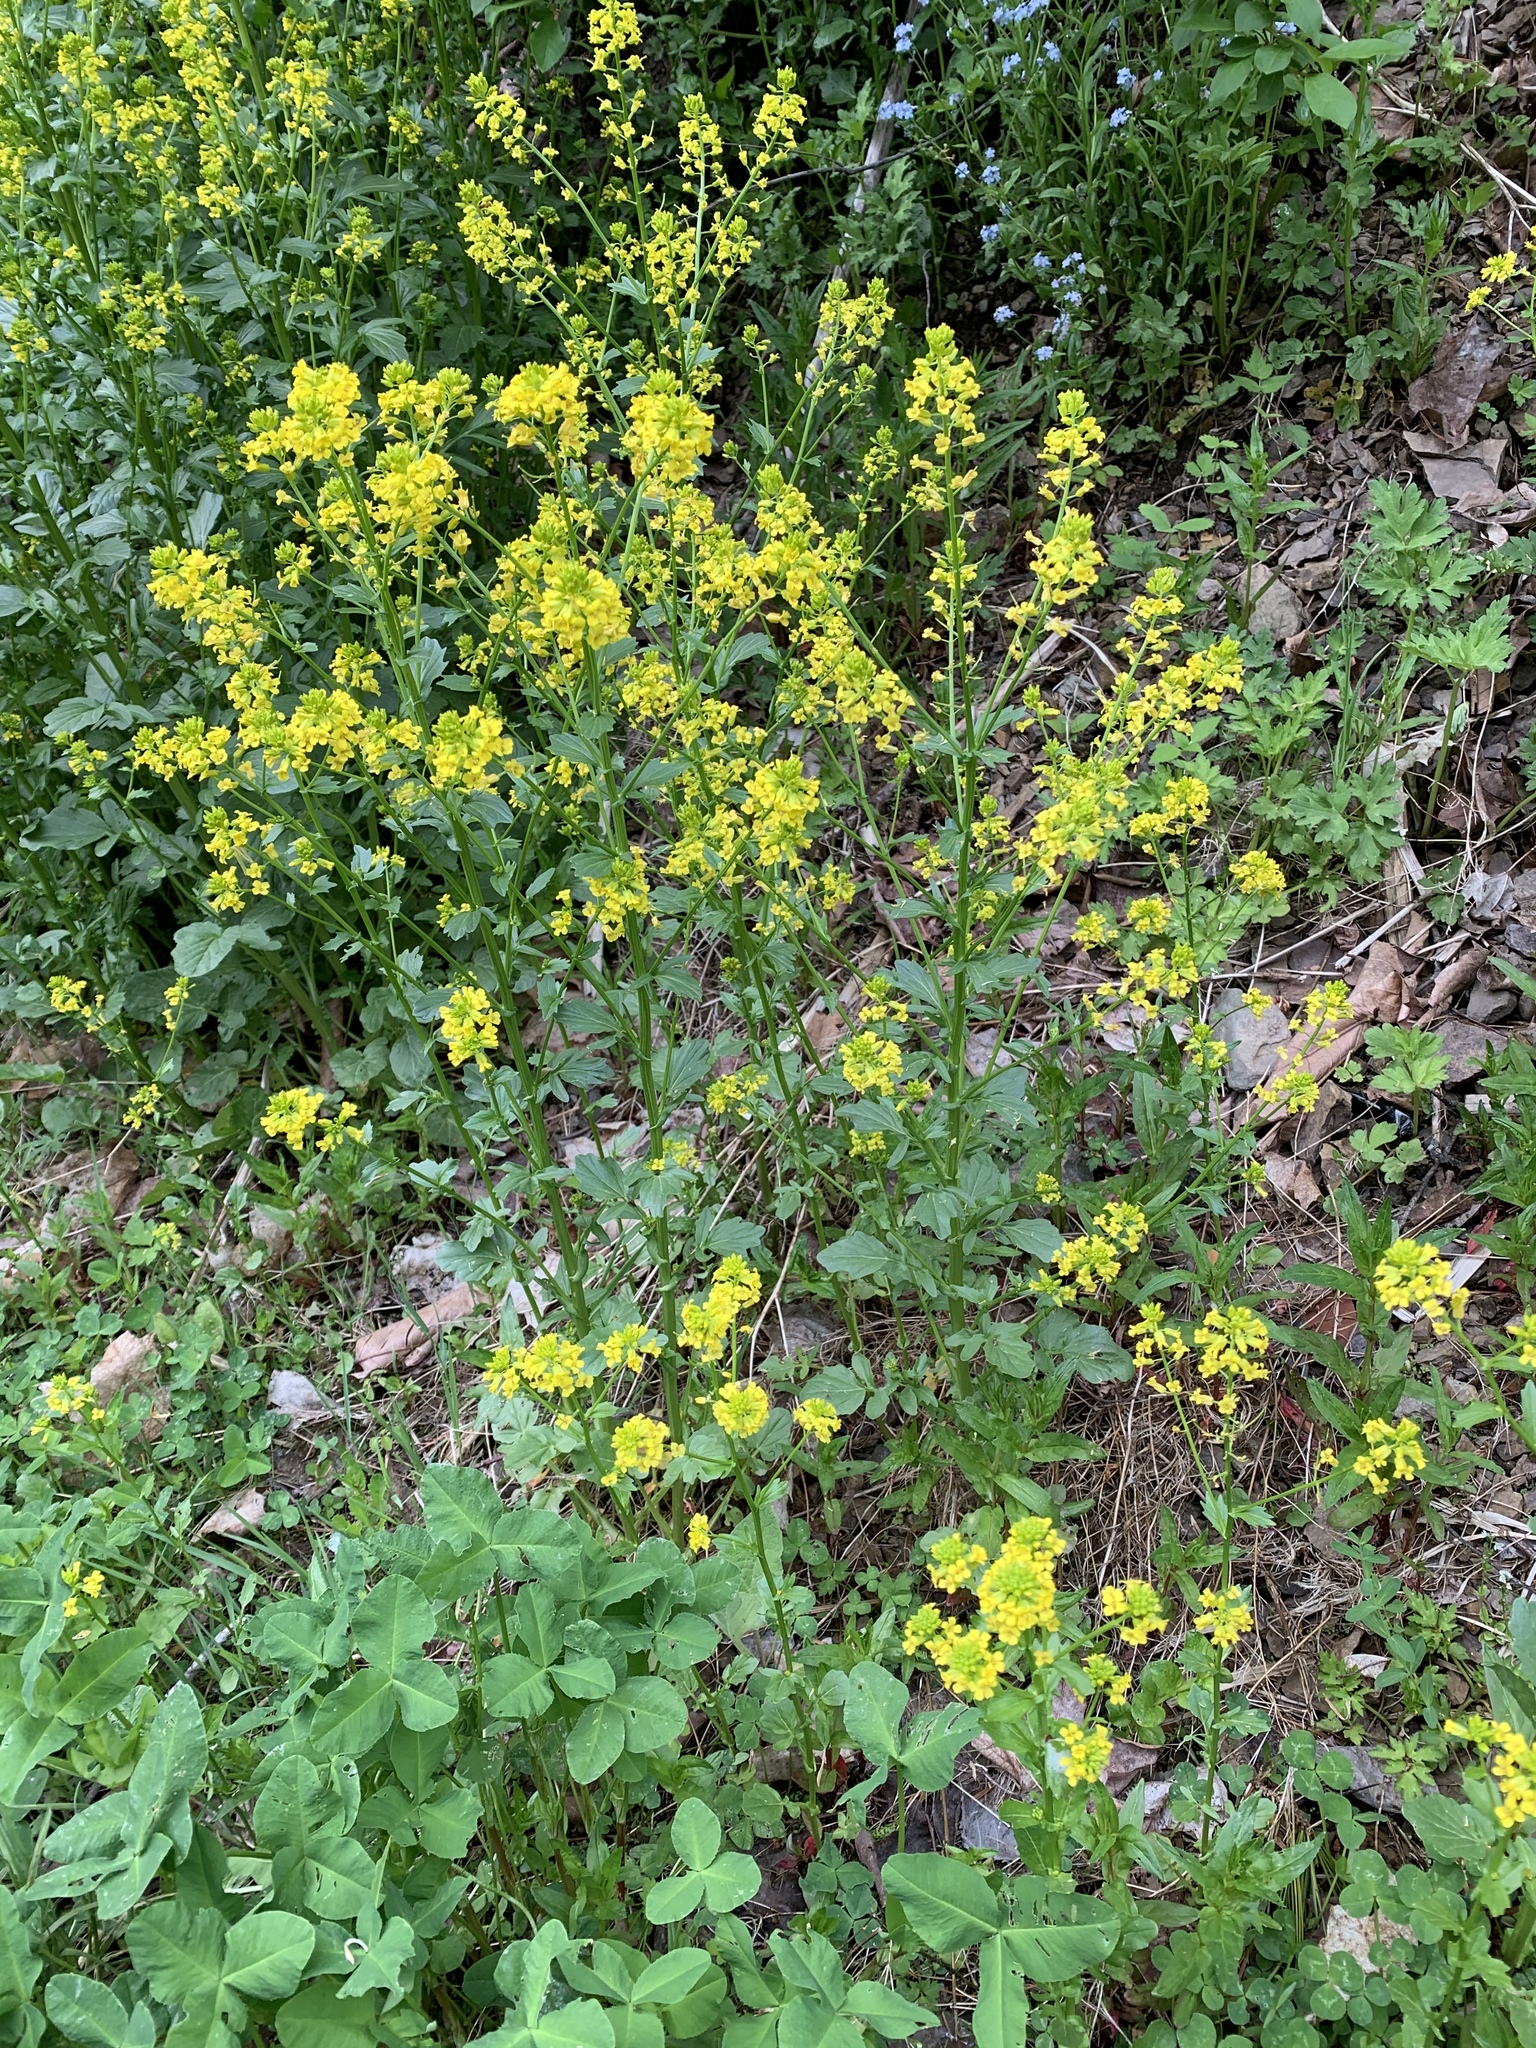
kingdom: Plantae
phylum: Tracheophyta
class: Magnoliopsida
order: Brassicales
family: Brassicaceae
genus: Barbarea
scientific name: Barbarea vulgaris
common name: Cressy-greens
